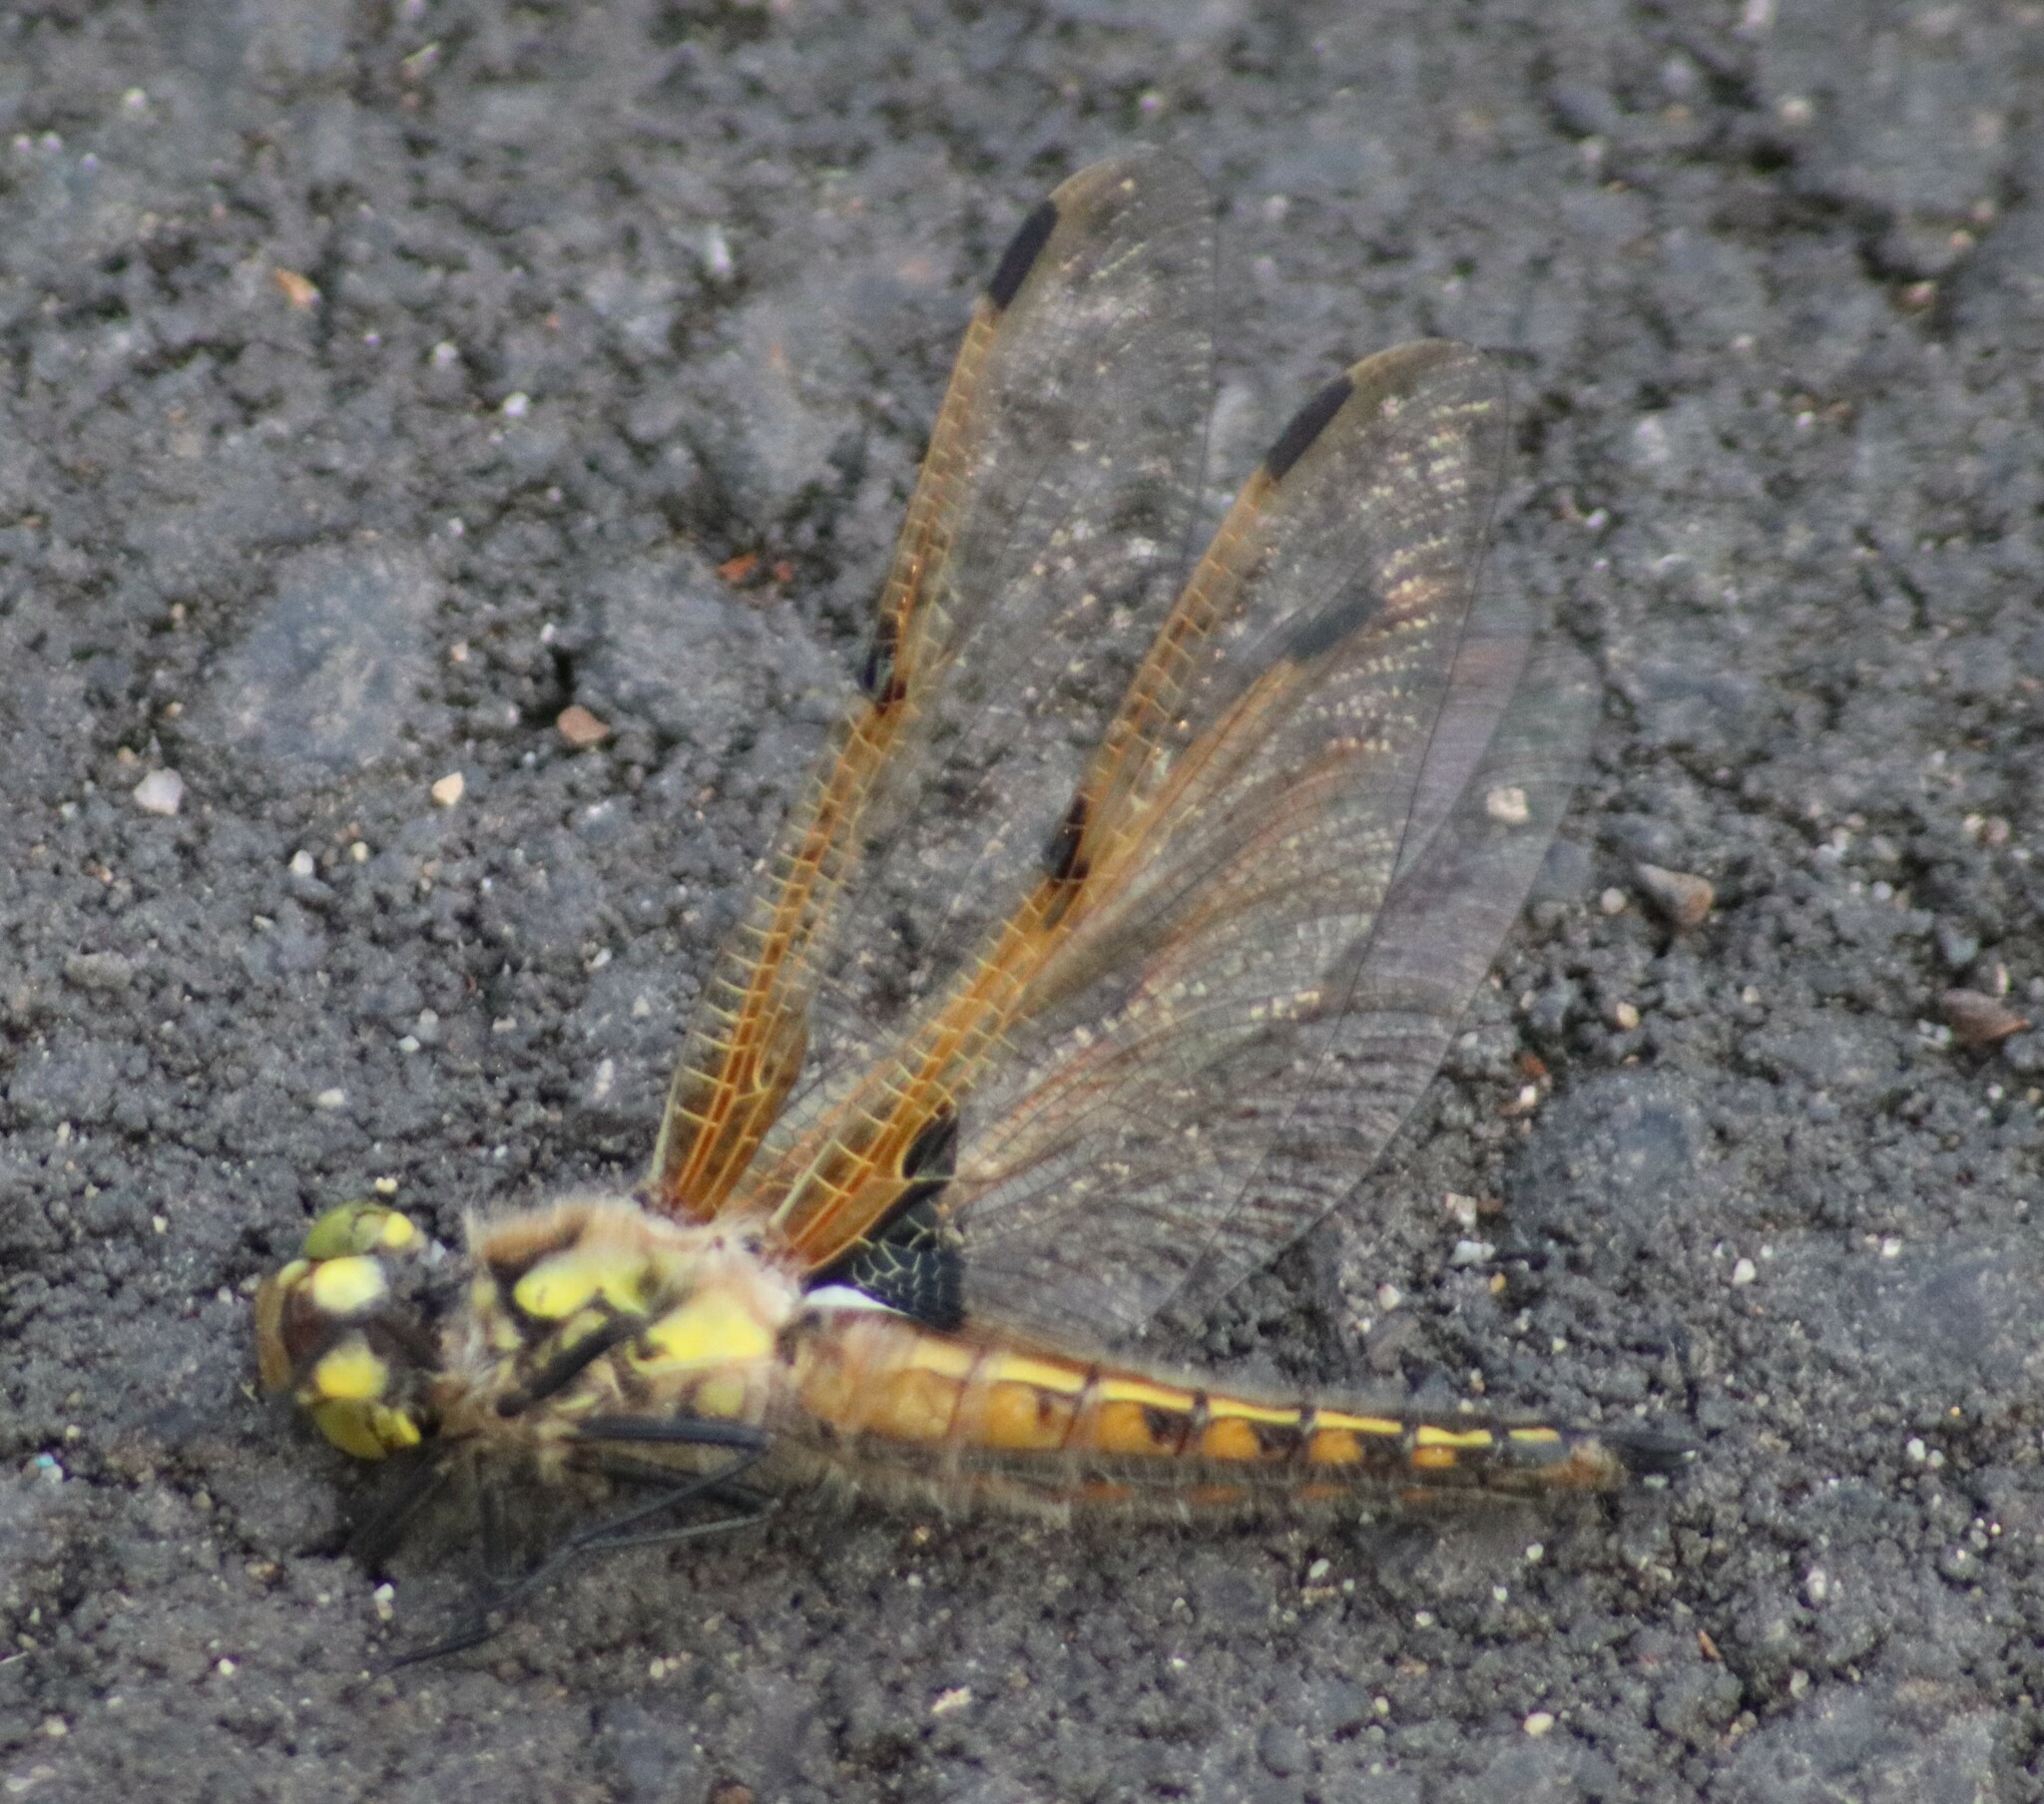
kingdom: Animalia
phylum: Arthropoda
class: Insecta
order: Odonata
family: Libellulidae
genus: Libellula
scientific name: Libellula quadrimaculata
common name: Four-spotted chaser
